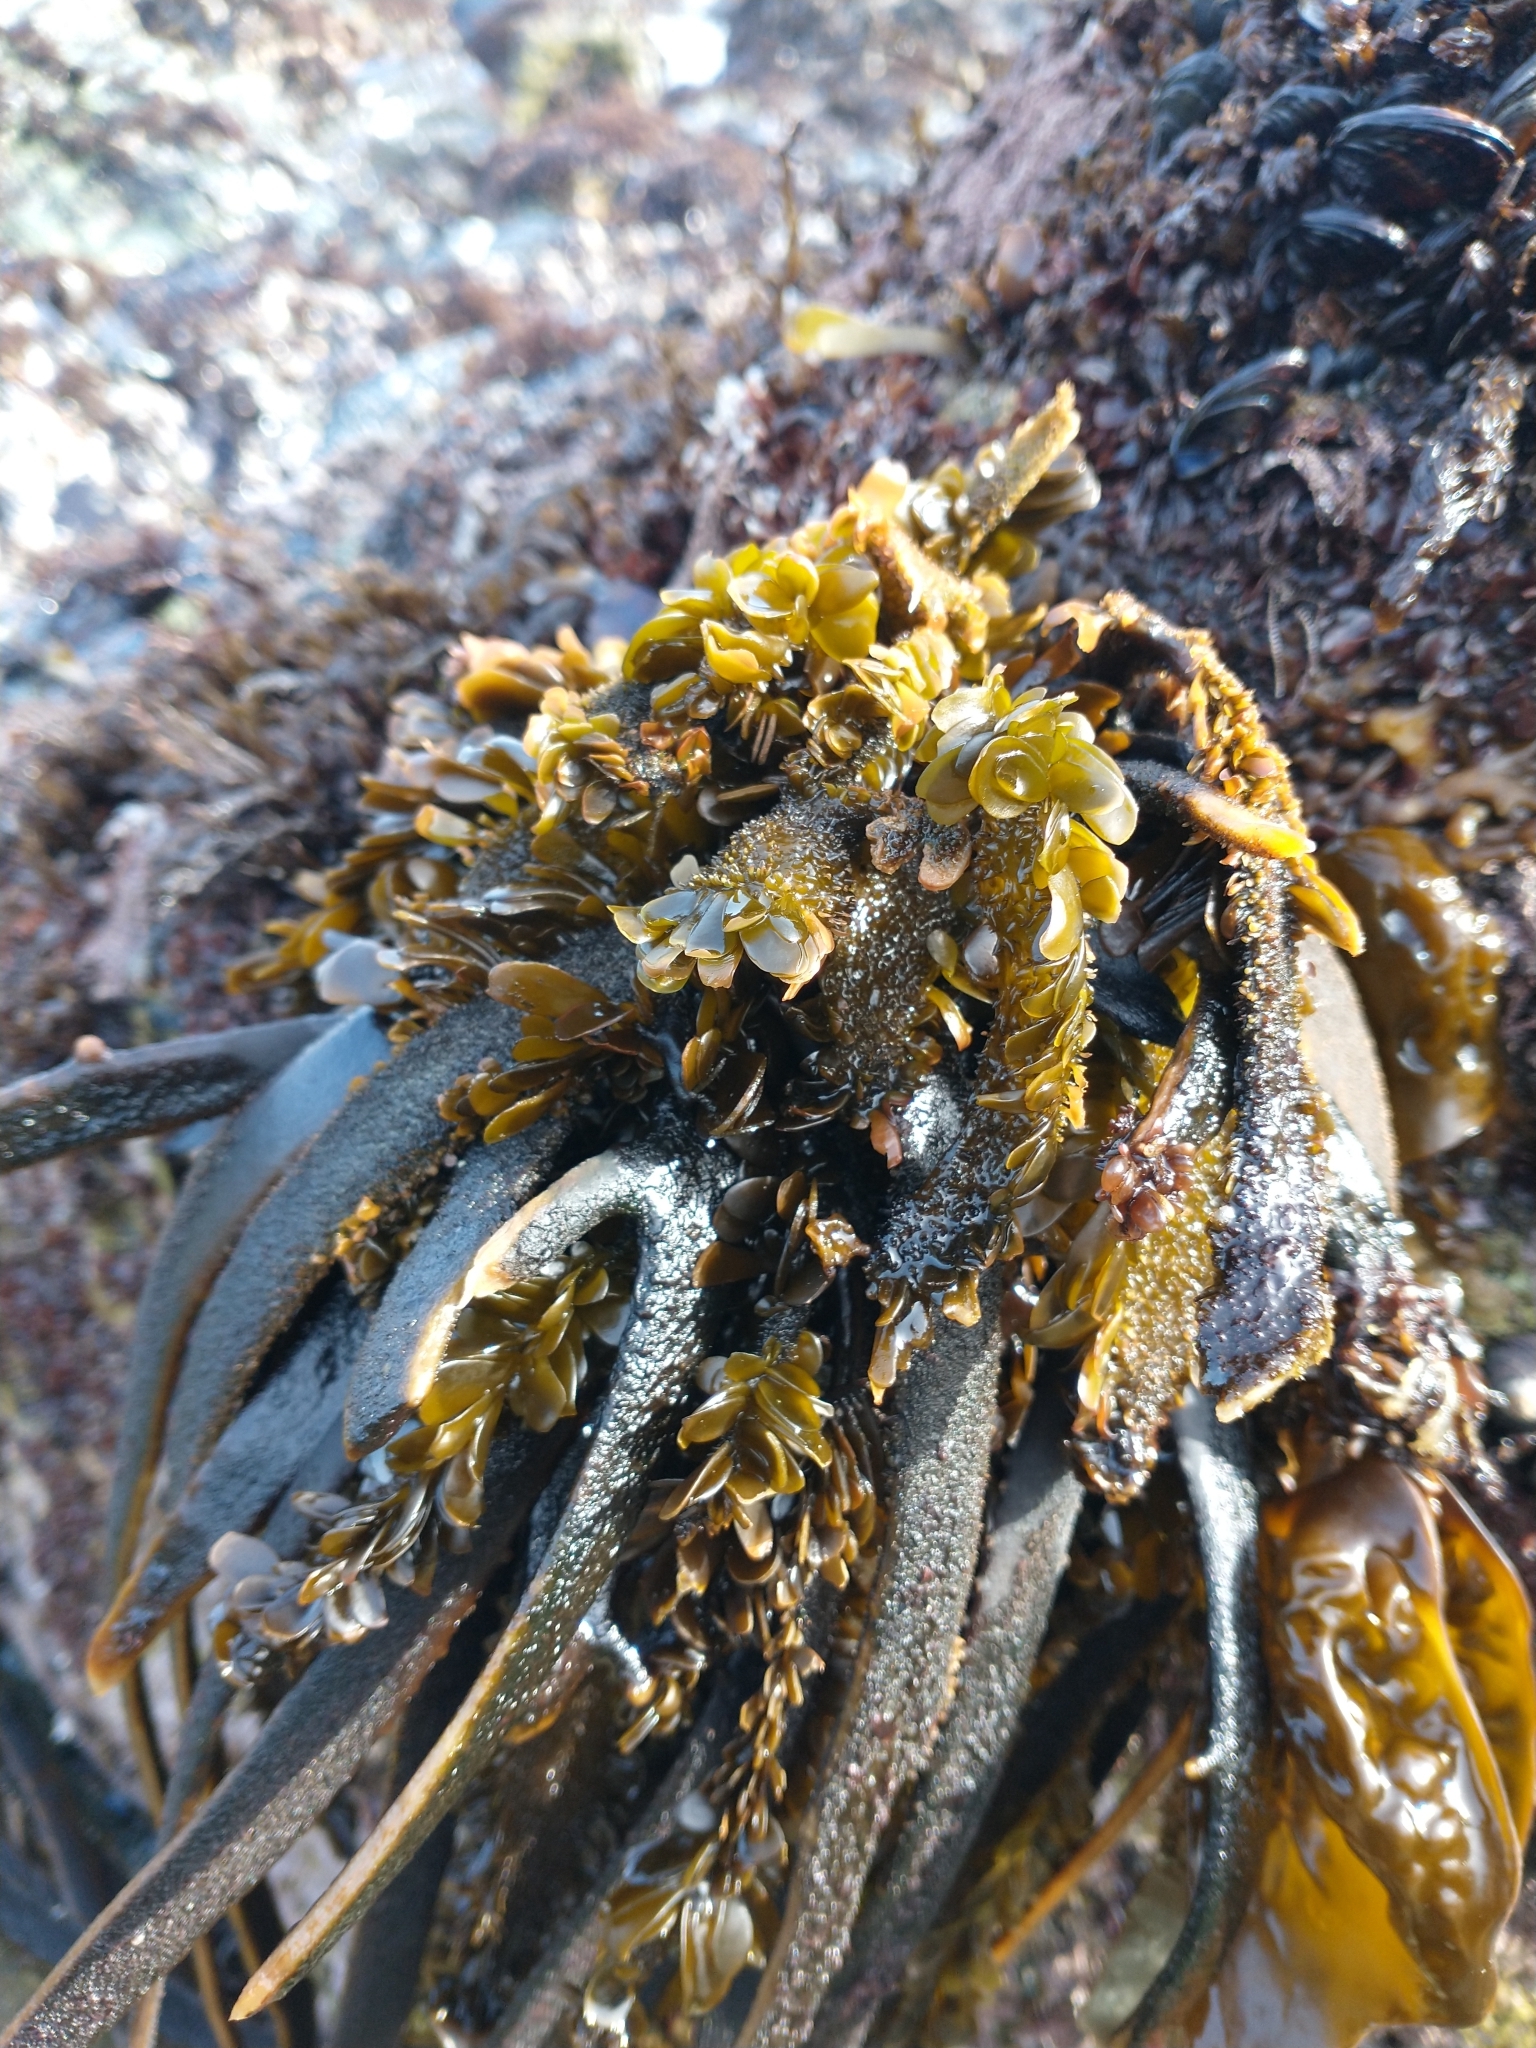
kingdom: Chromista
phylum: Ochrophyta
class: Phaeophyceae
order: Laminariales
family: Lessoniaceae
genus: Egregia
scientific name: Egregia menziesii
